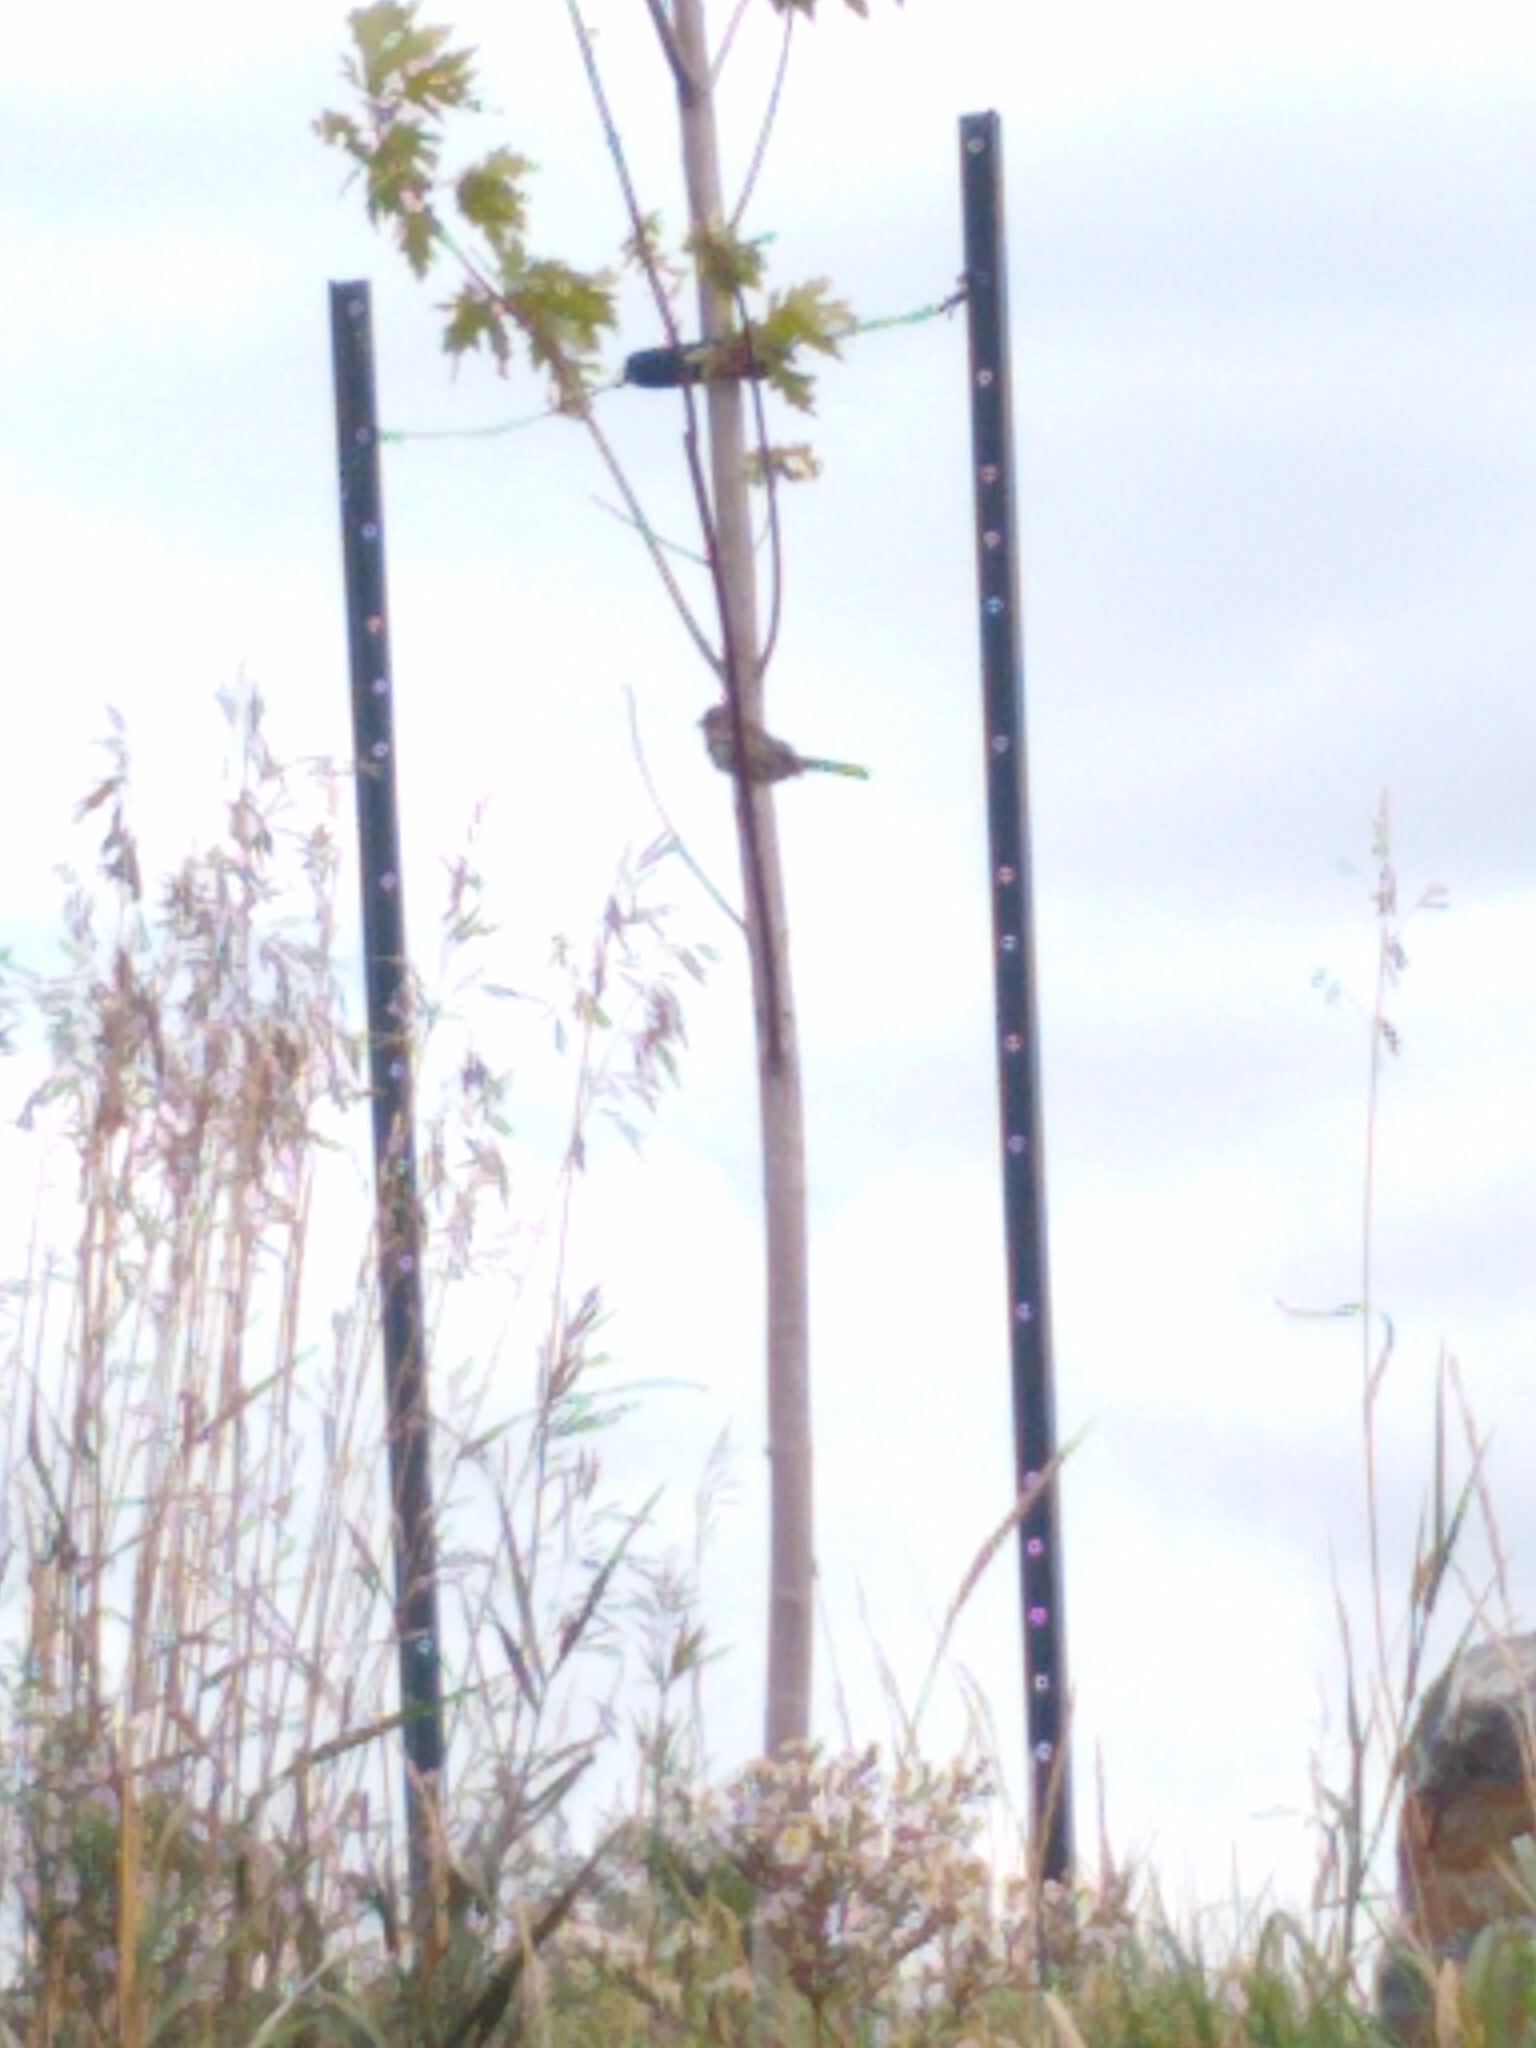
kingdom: Animalia
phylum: Chordata
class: Aves
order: Passeriformes
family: Passerellidae
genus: Melospiza
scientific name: Melospiza melodia
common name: Song sparrow
